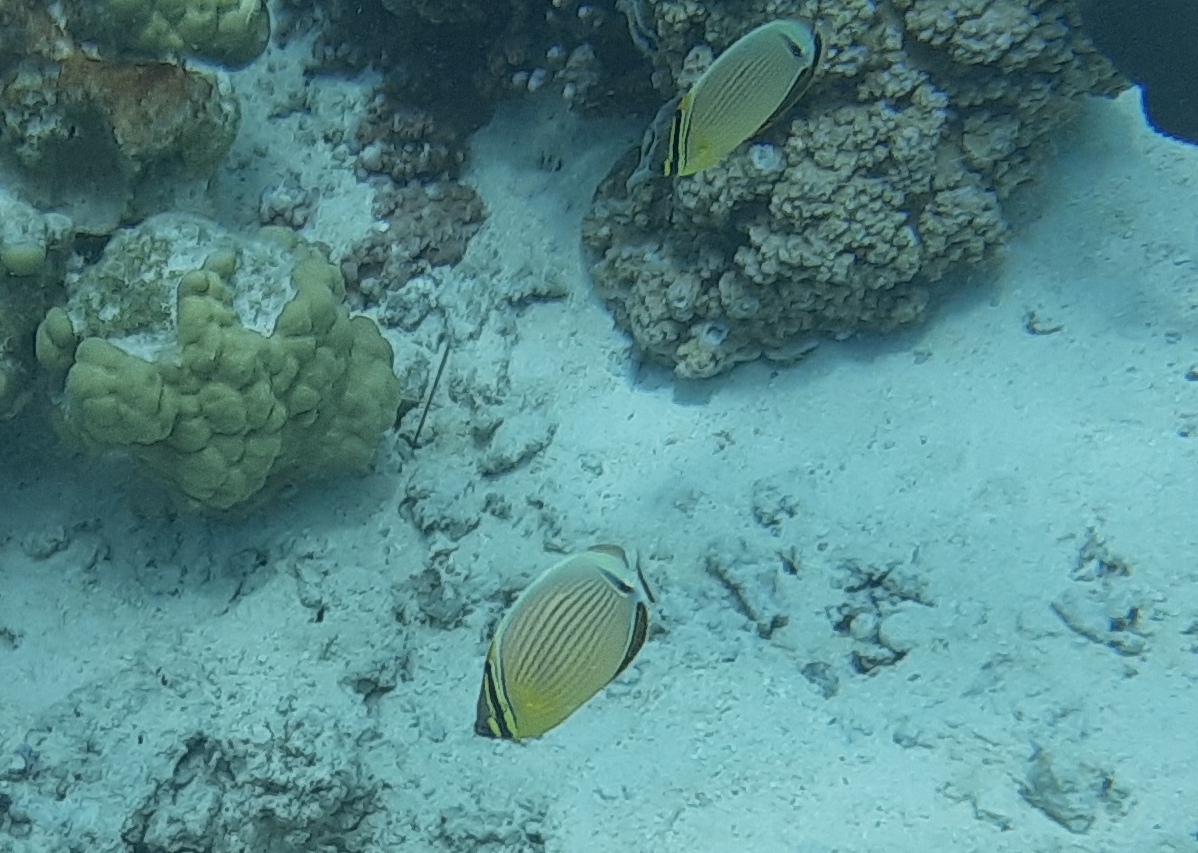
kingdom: Animalia
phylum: Chordata
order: Perciformes
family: Chaetodontidae
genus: Chaetodon
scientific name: Chaetodon lunulatus
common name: Redfin butterflyfish
